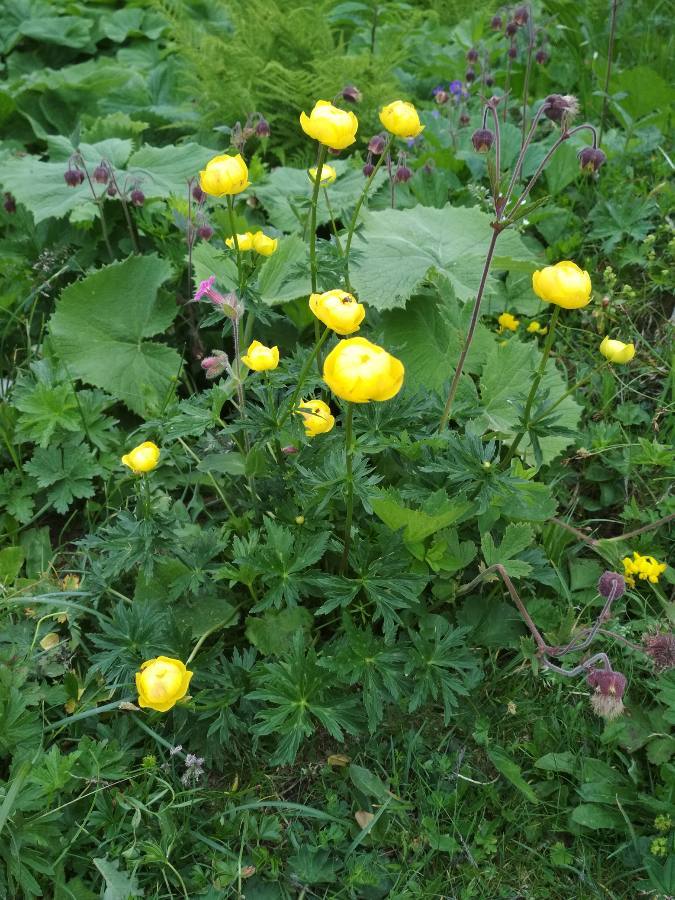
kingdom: Plantae
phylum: Tracheophyta
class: Magnoliopsida
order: Ranunculales
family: Ranunculaceae
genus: Trollius
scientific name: Trollius europaeus
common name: European globeflower
